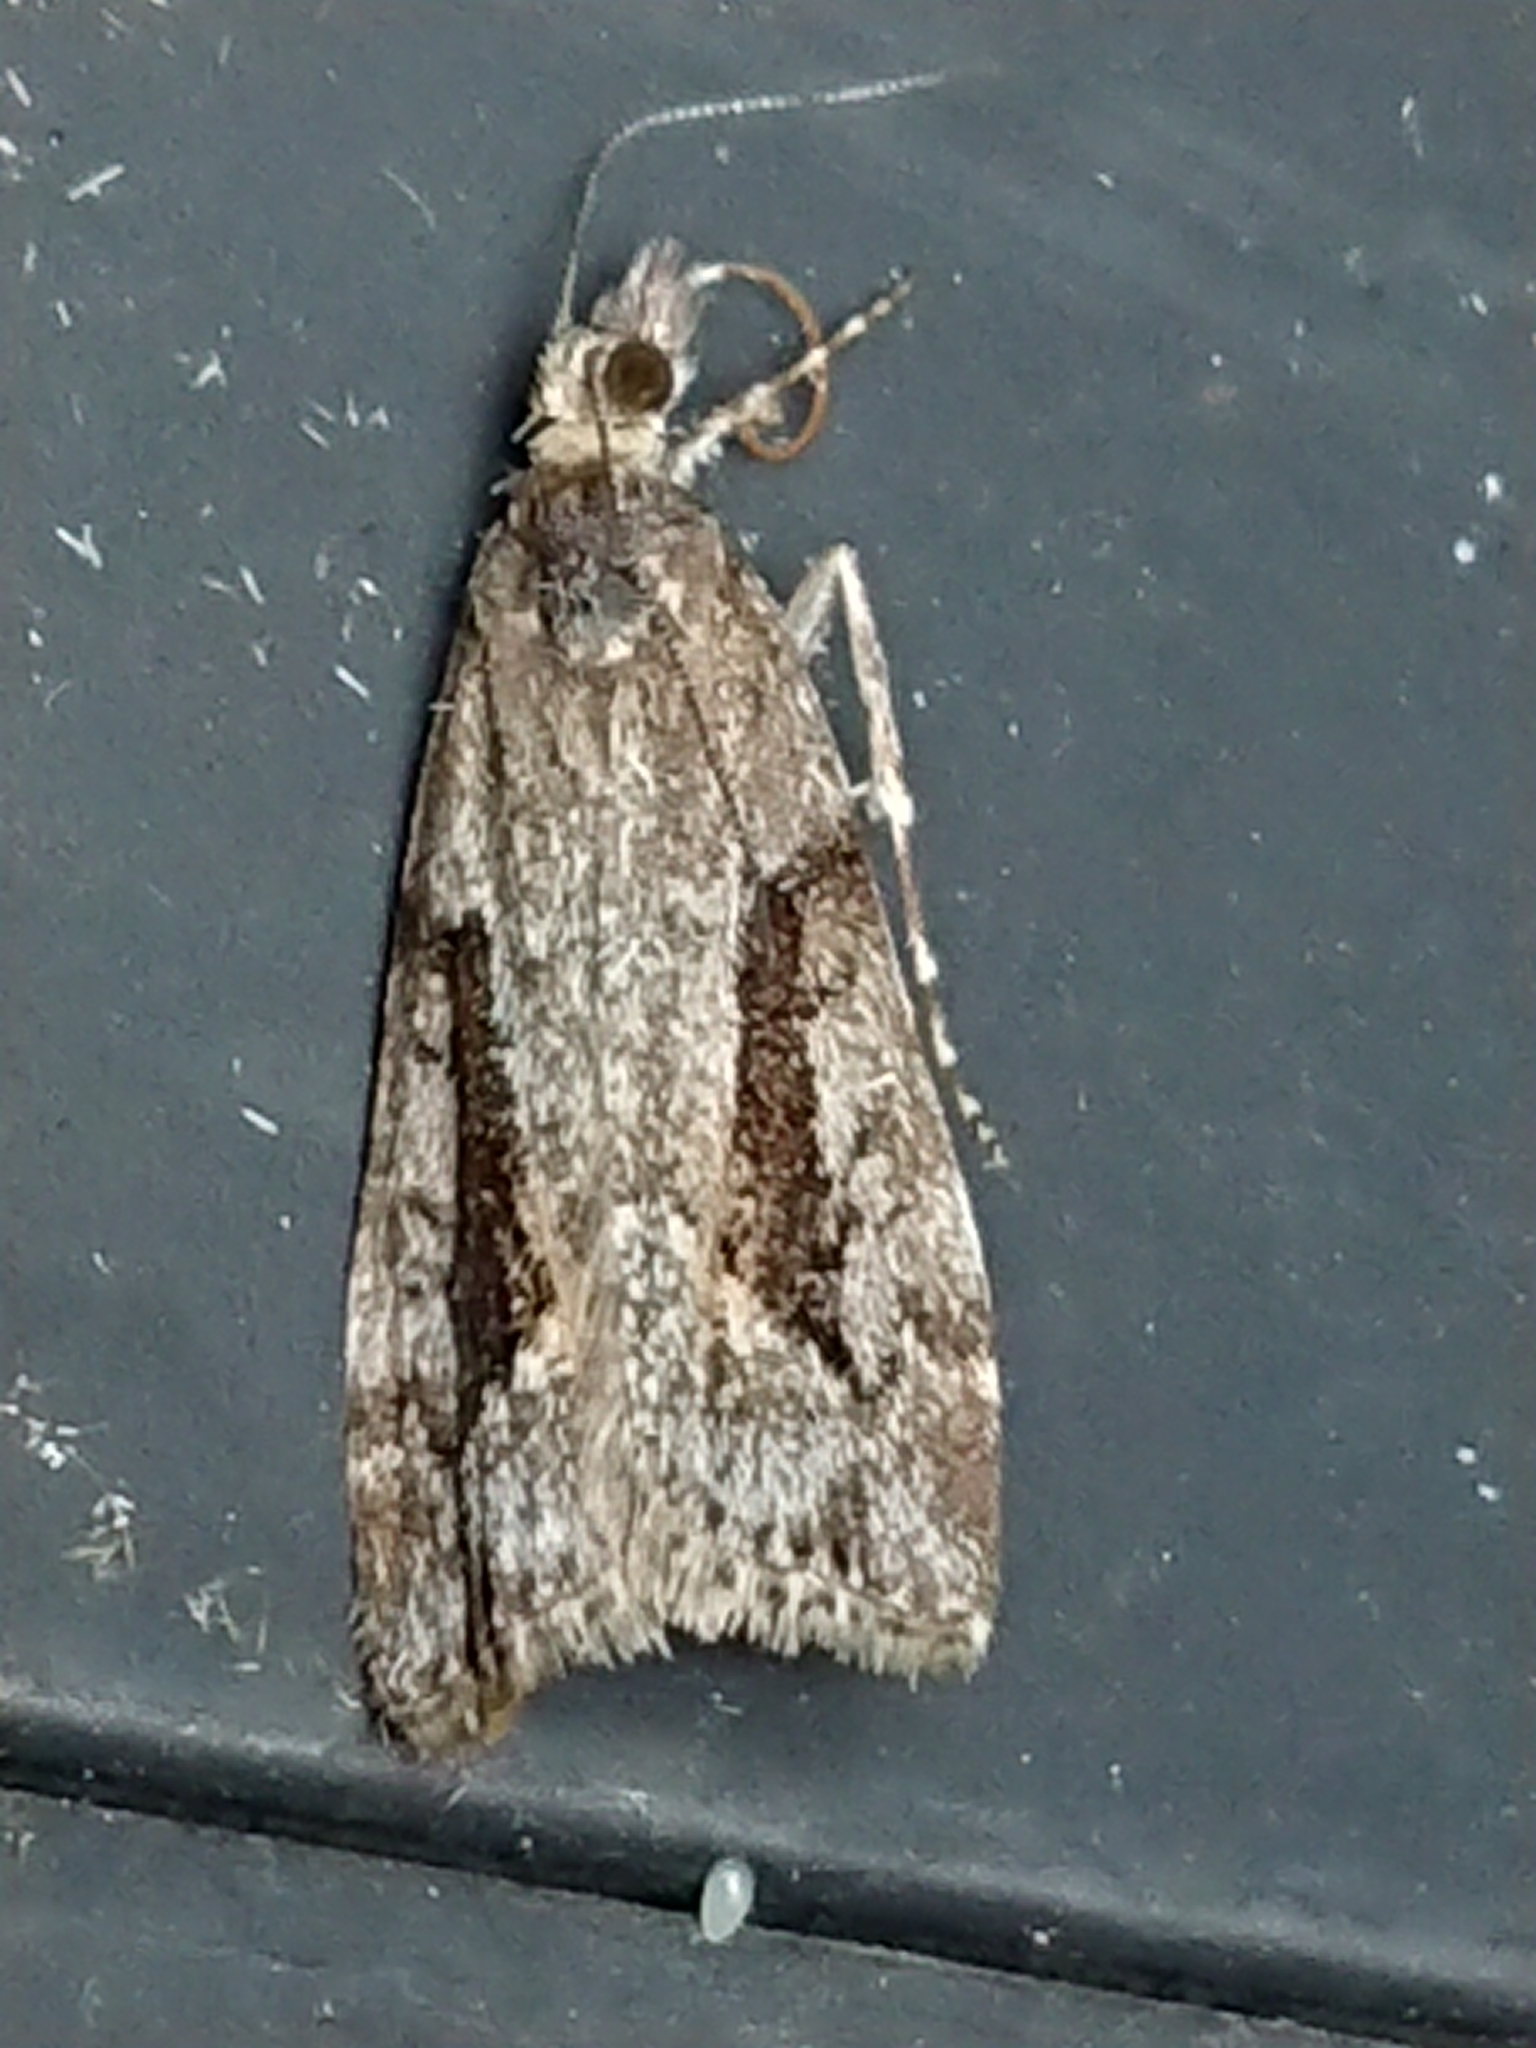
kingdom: Animalia
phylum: Arthropoda
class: Insecta
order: Lepidoptera
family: Crambidae
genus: Eudonia
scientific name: Eudonia submarginalis
